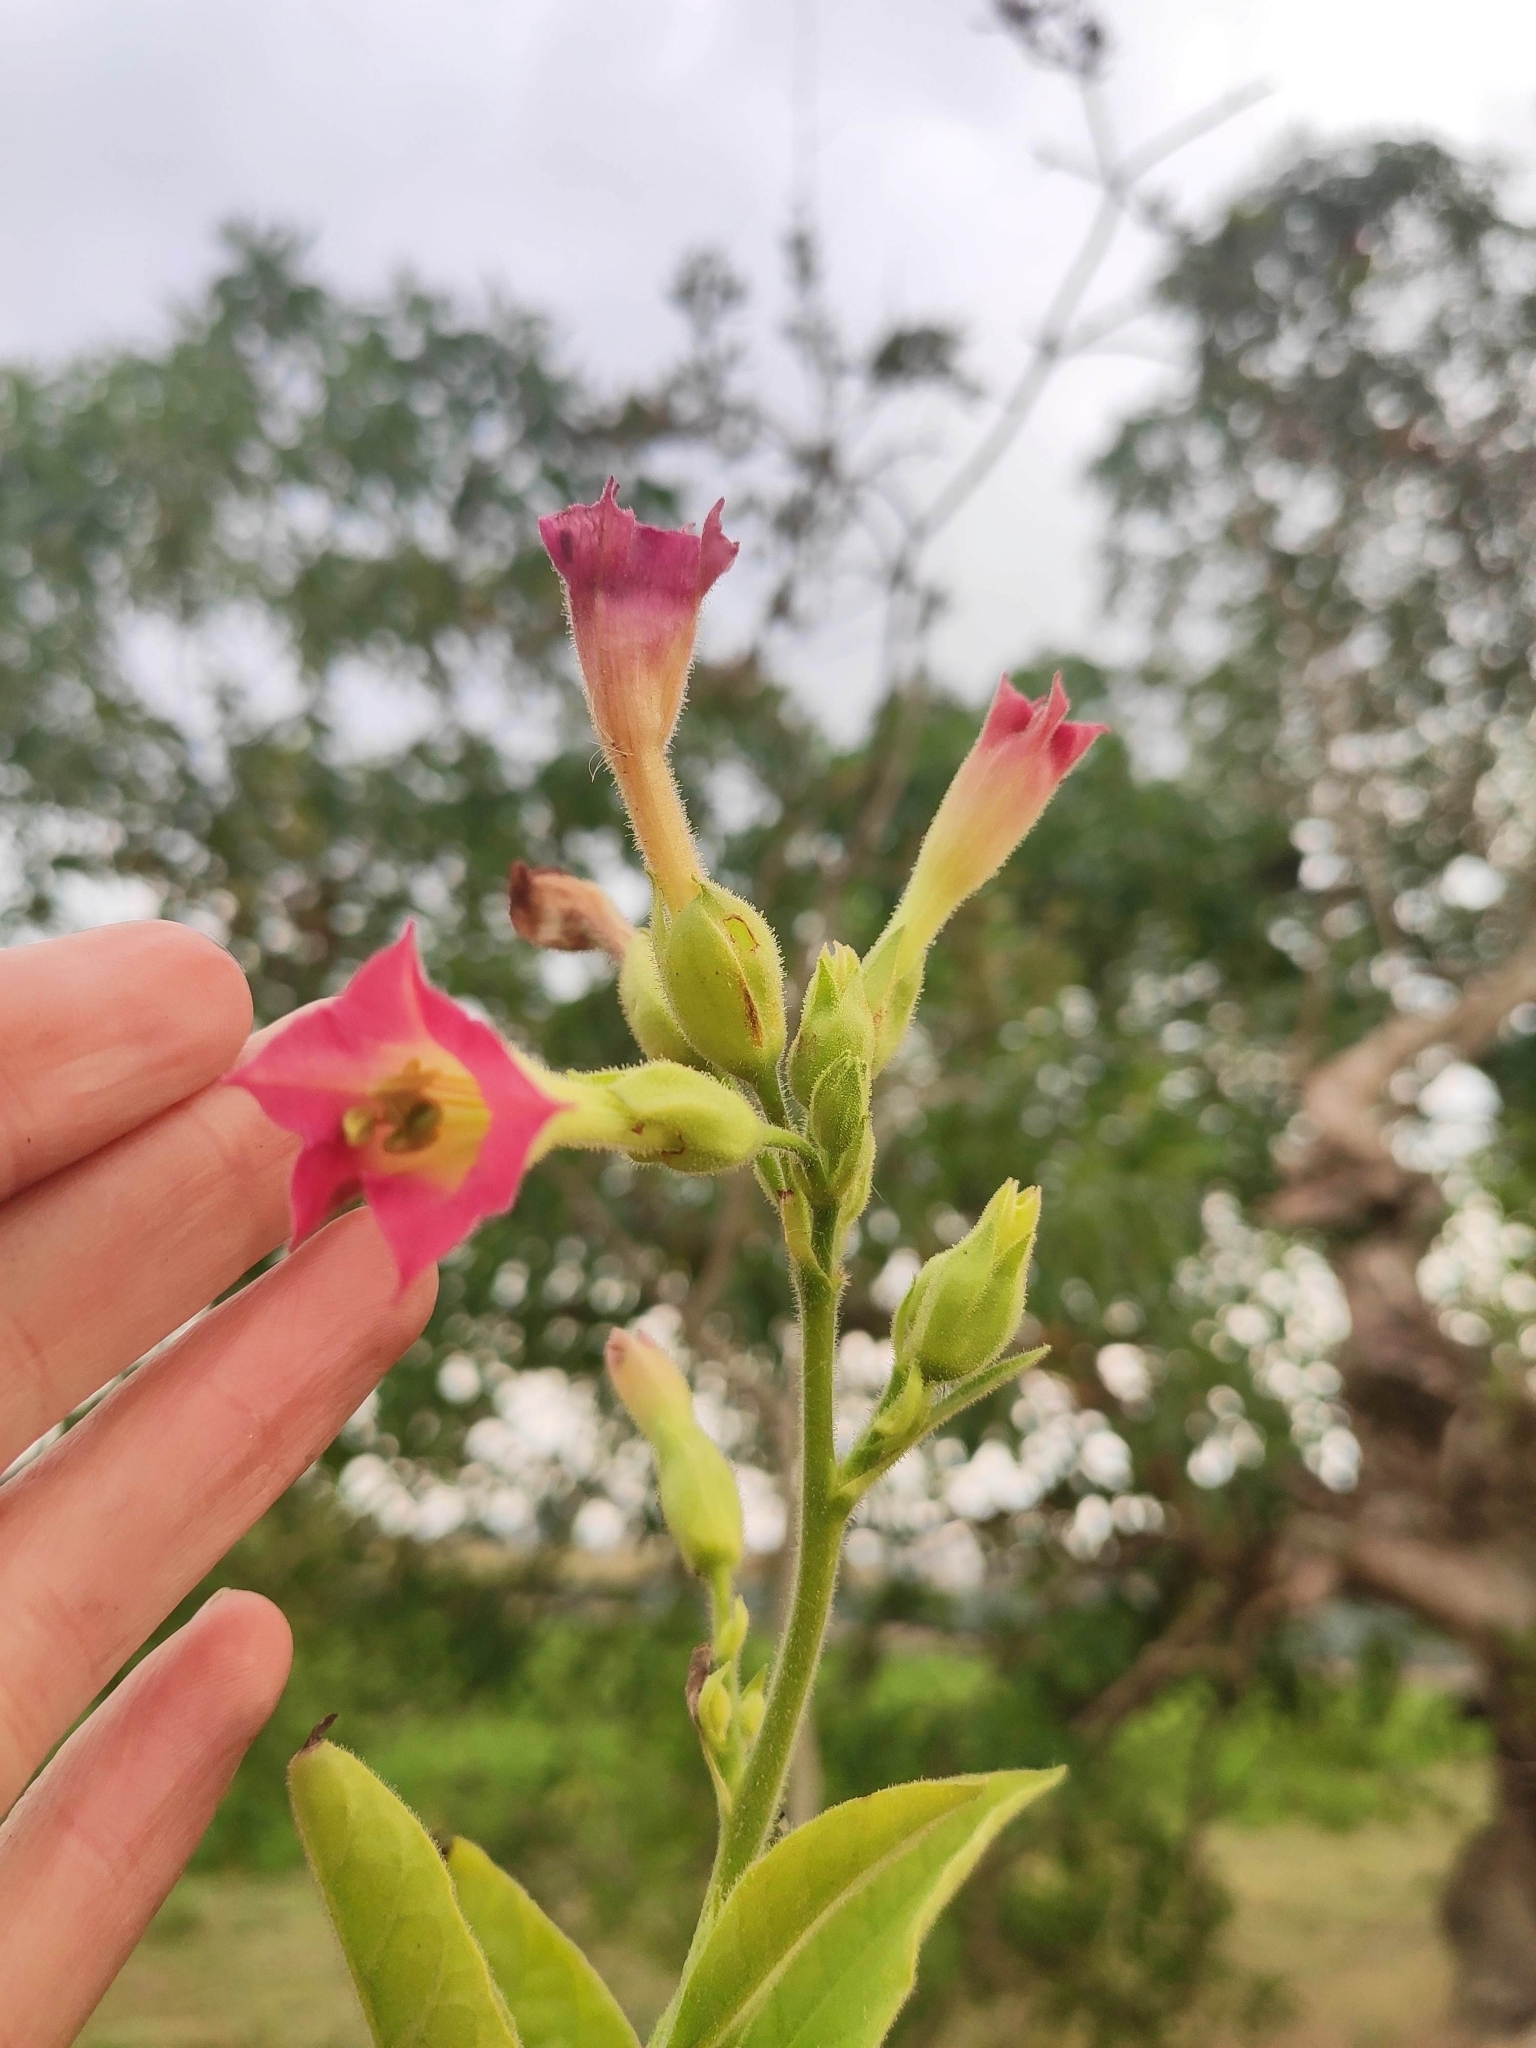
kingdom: Plantae
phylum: Tracheophyta
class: Magnoliopsida
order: Solanales
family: Solanaceae
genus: Nicotiana
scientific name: Nicotiana tabacum
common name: Tobacco
